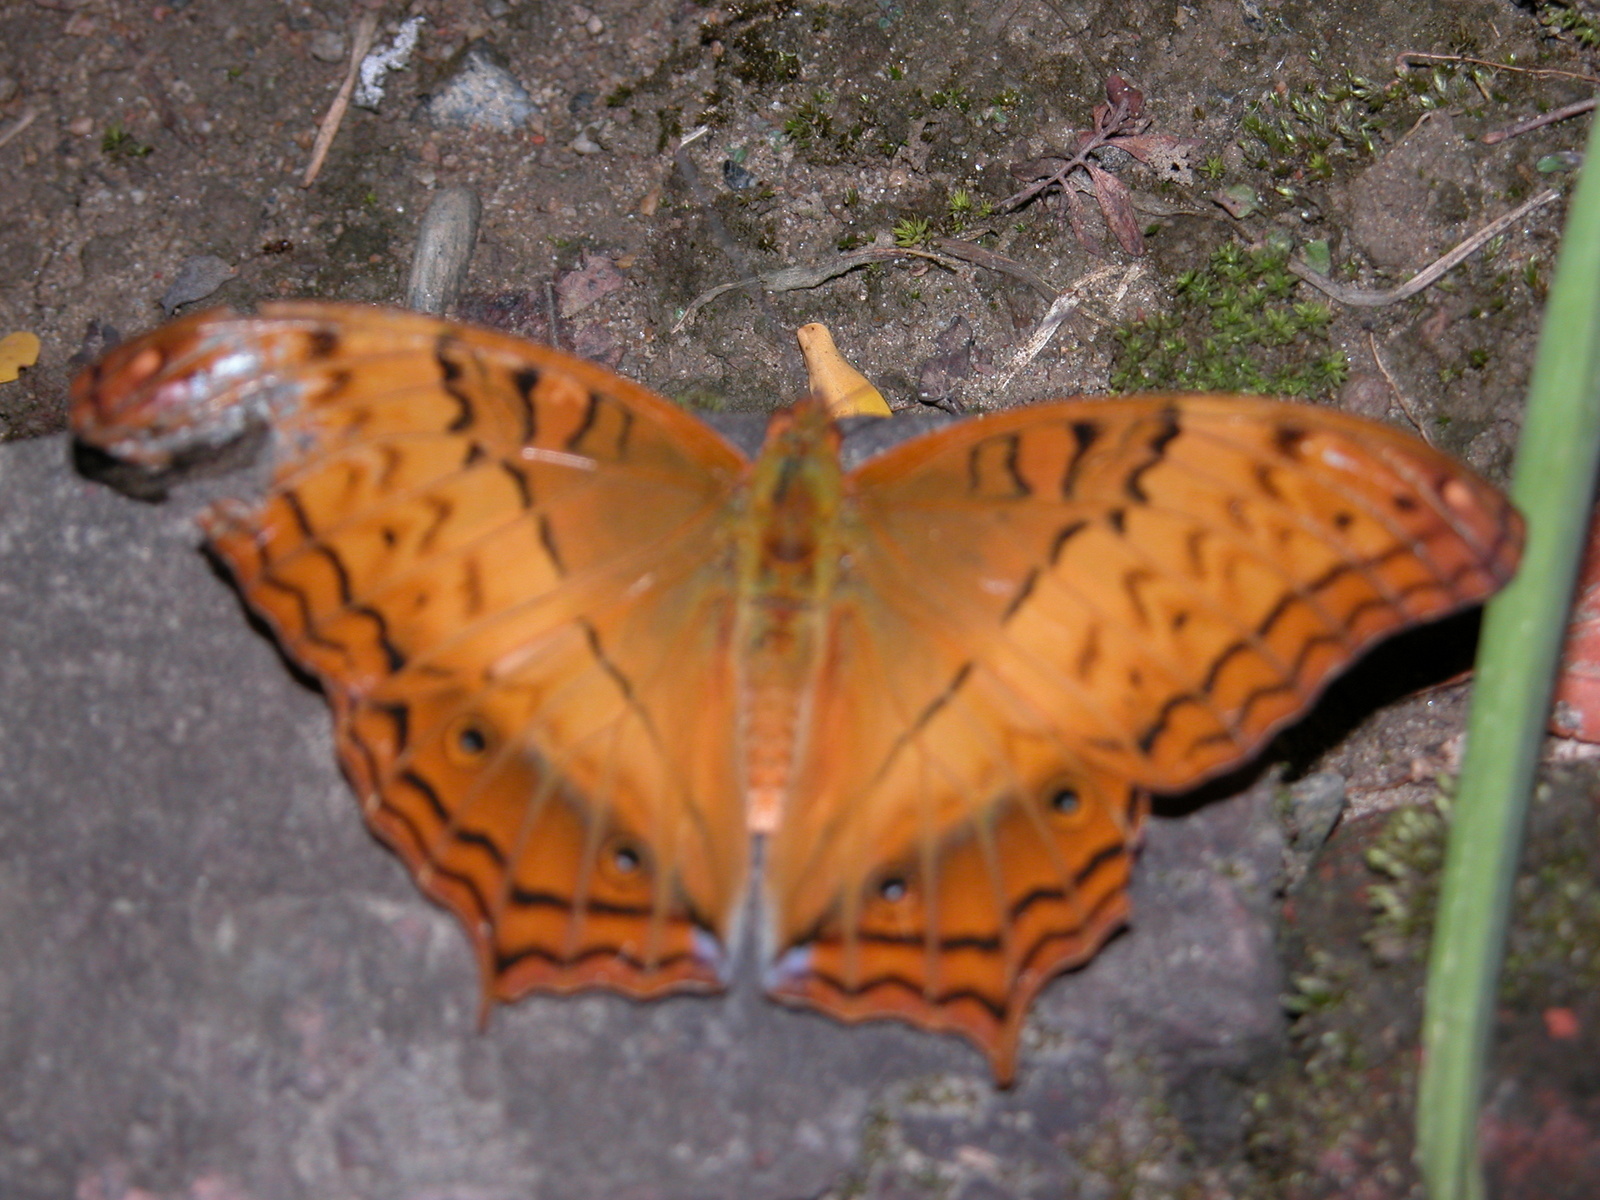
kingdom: Animalia
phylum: Arthropoda
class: Insecta
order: Lepidoptera
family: Nymphalidae
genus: Vindula
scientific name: Vindula erota
